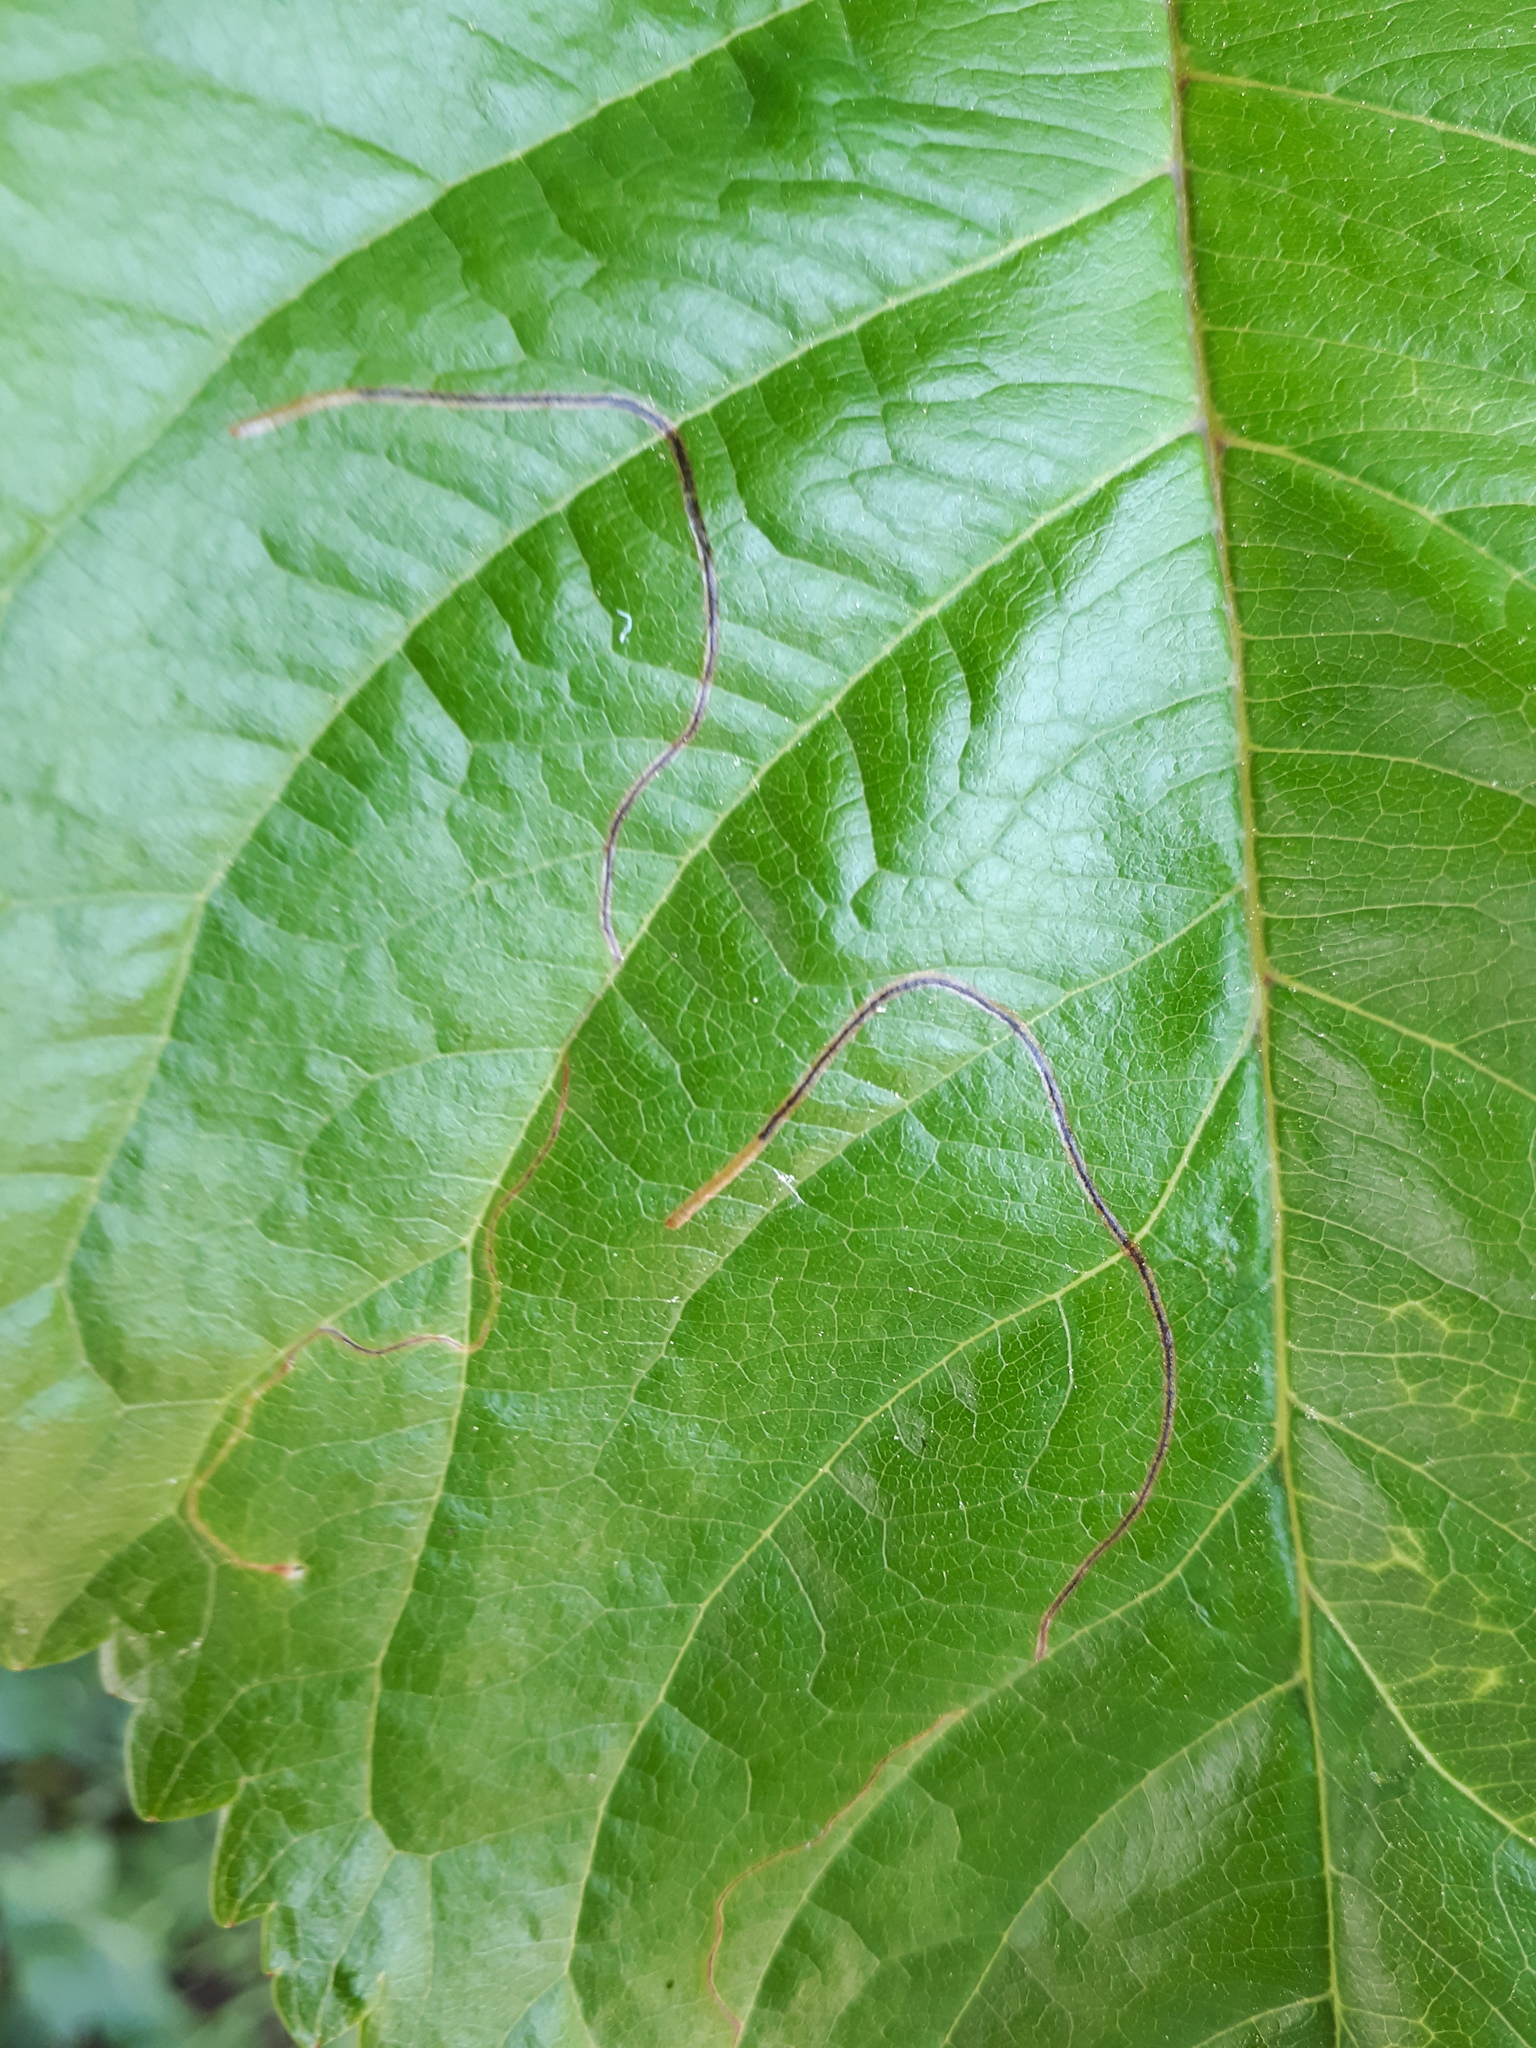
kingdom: Animalia
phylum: Arthropoda
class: Insecta
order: Lepidoptera
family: Lyonetiidae
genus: Lyonetia
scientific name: Lyonetia clerkella
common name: Apple leaf miner
